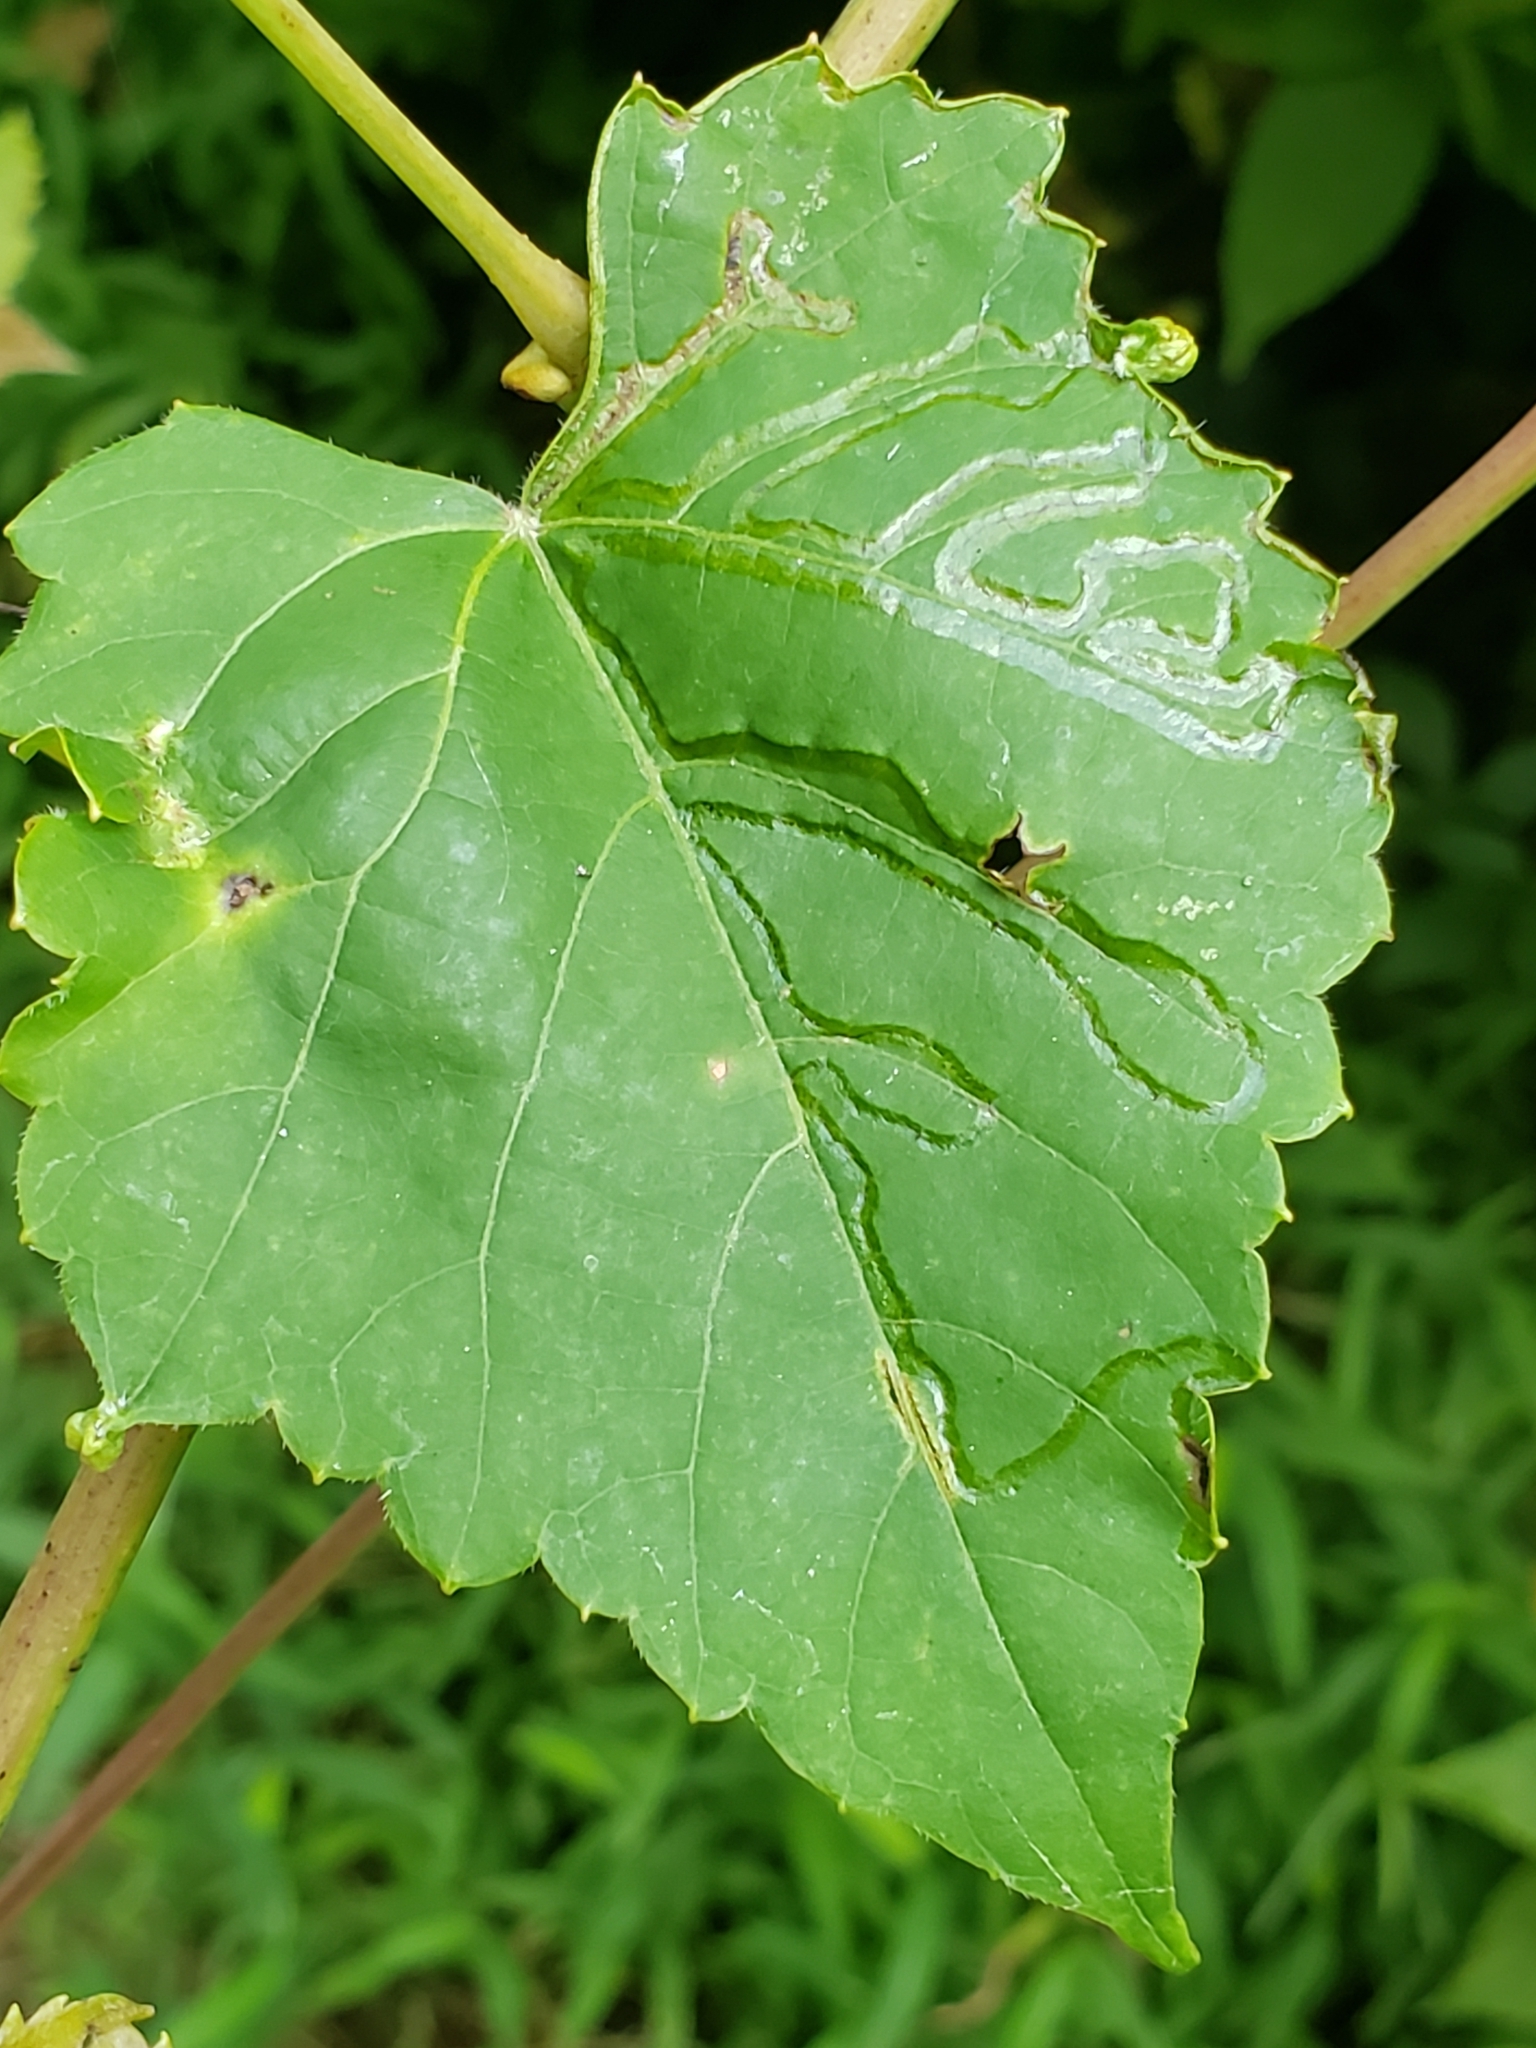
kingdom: Animalia
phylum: Arthropoda
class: Insecta
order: Lepidoptera
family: Gracillariidae
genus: Phyllocnistis
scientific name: Phyllocnistis vitegenella
